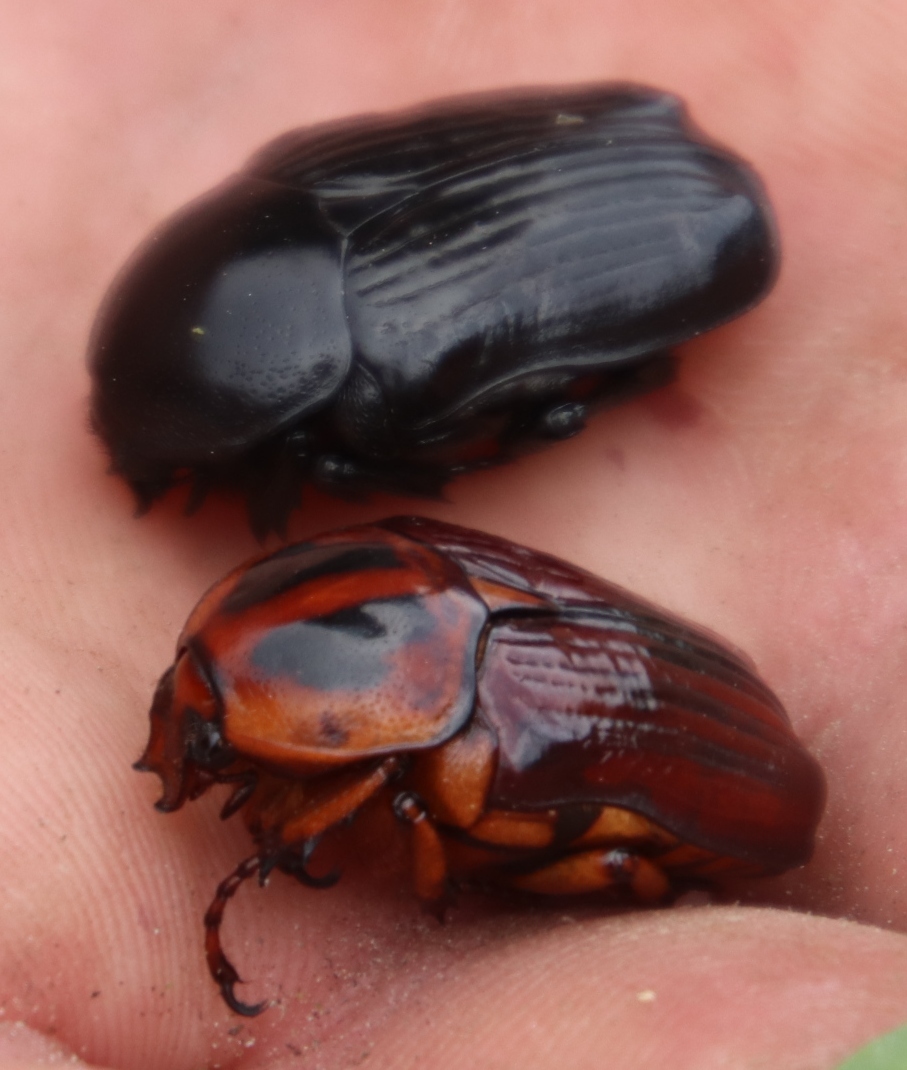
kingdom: Animalia
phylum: Arthropoda
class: Insecta
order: Coleoptera
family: Scarabaeidae
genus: Diplognatha
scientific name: Diplognatha striata
